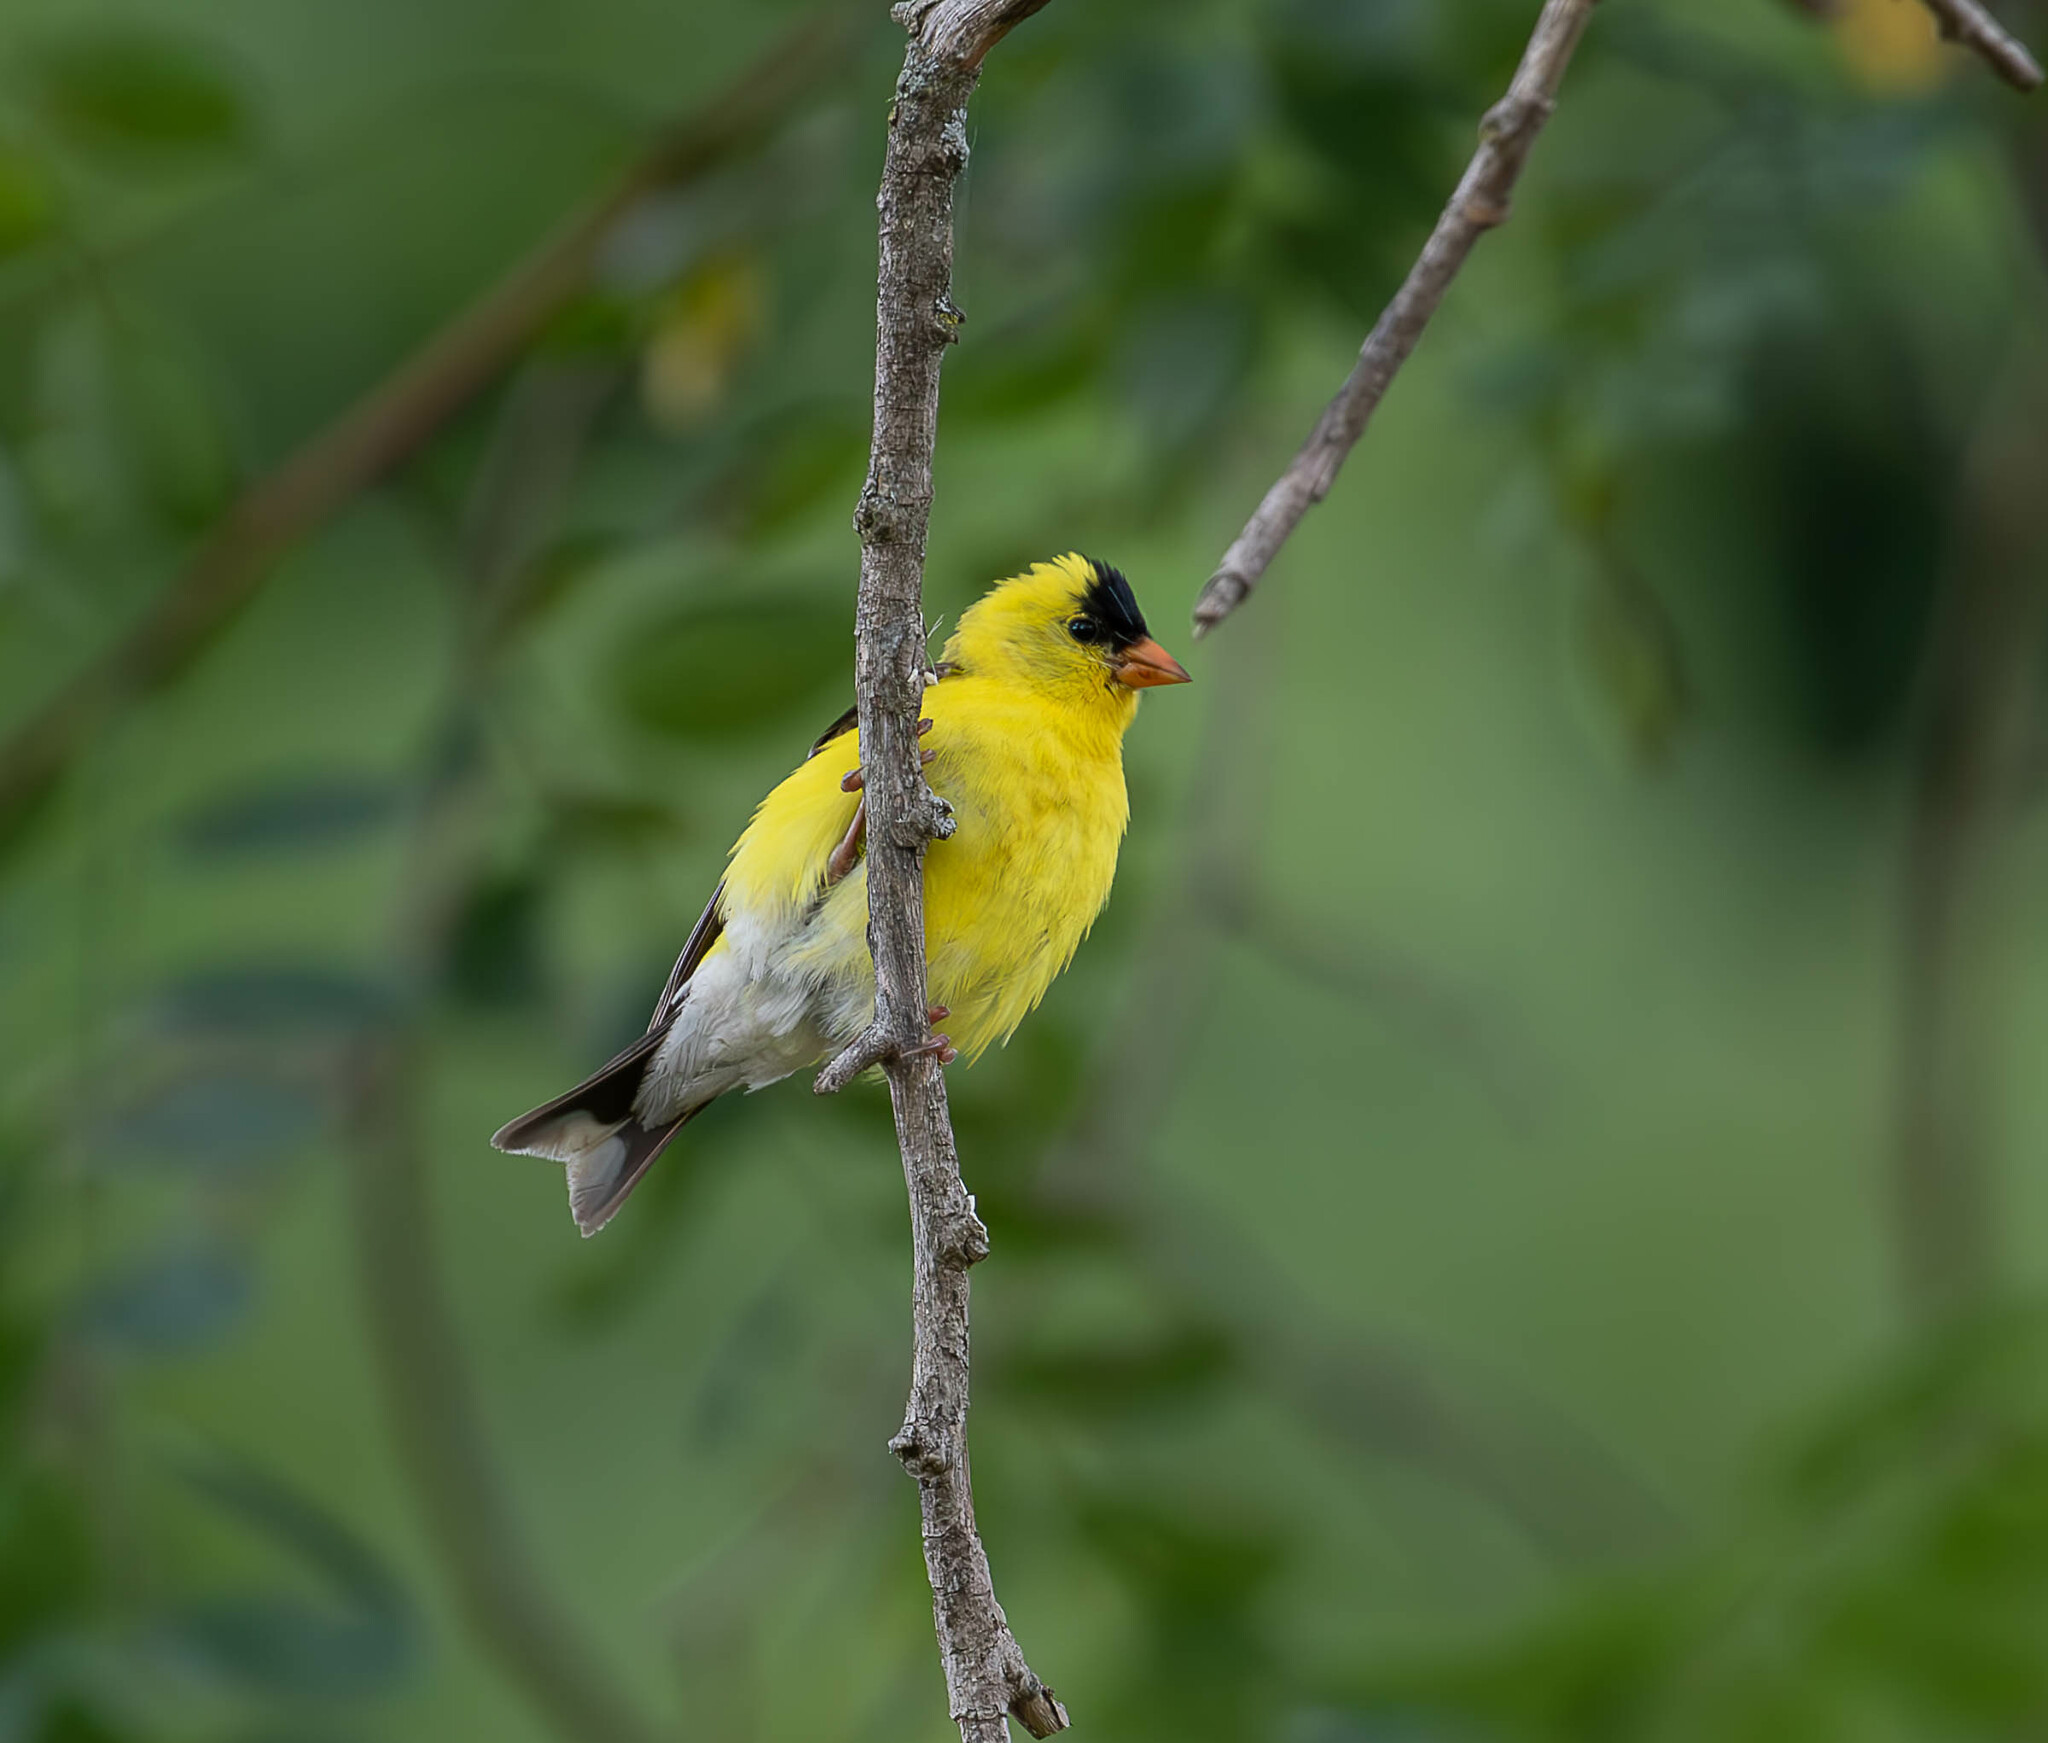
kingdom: Animalia
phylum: Chordata
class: Aves
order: Passeriformes
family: Fringillidae
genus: Spinus
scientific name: Spinus tristis
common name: American goldfinch
